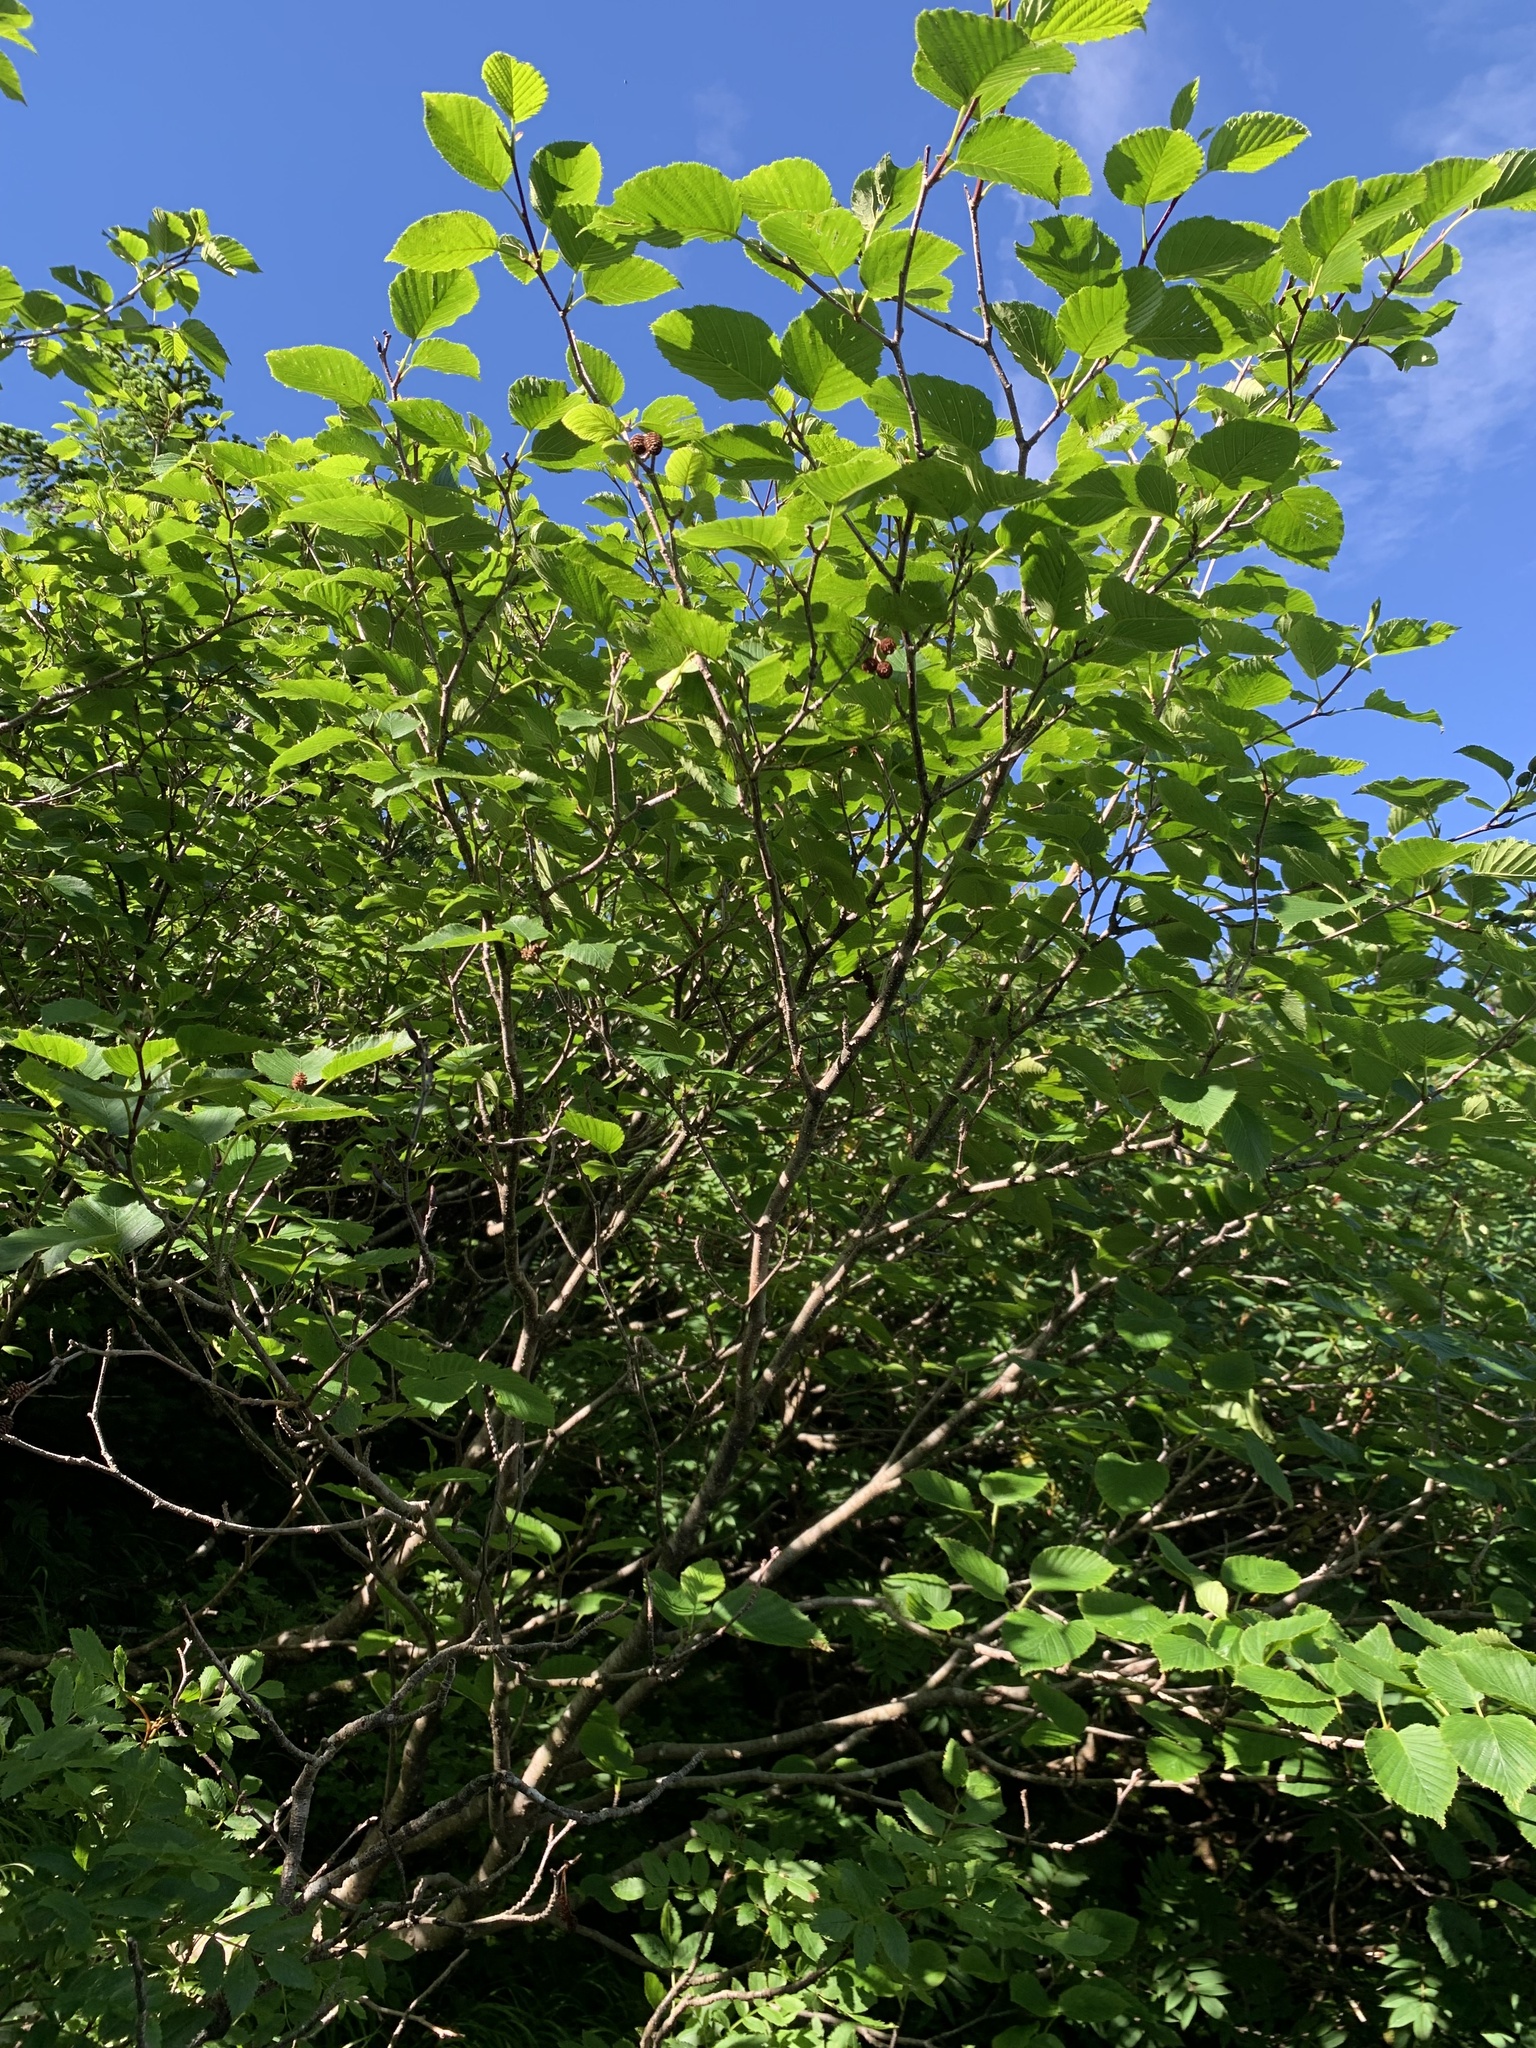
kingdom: Plantae
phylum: Tracheophyta
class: Magnoliopsida
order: Fagales
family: Betulaceae
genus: Alnus
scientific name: Alnus maximowiczii
